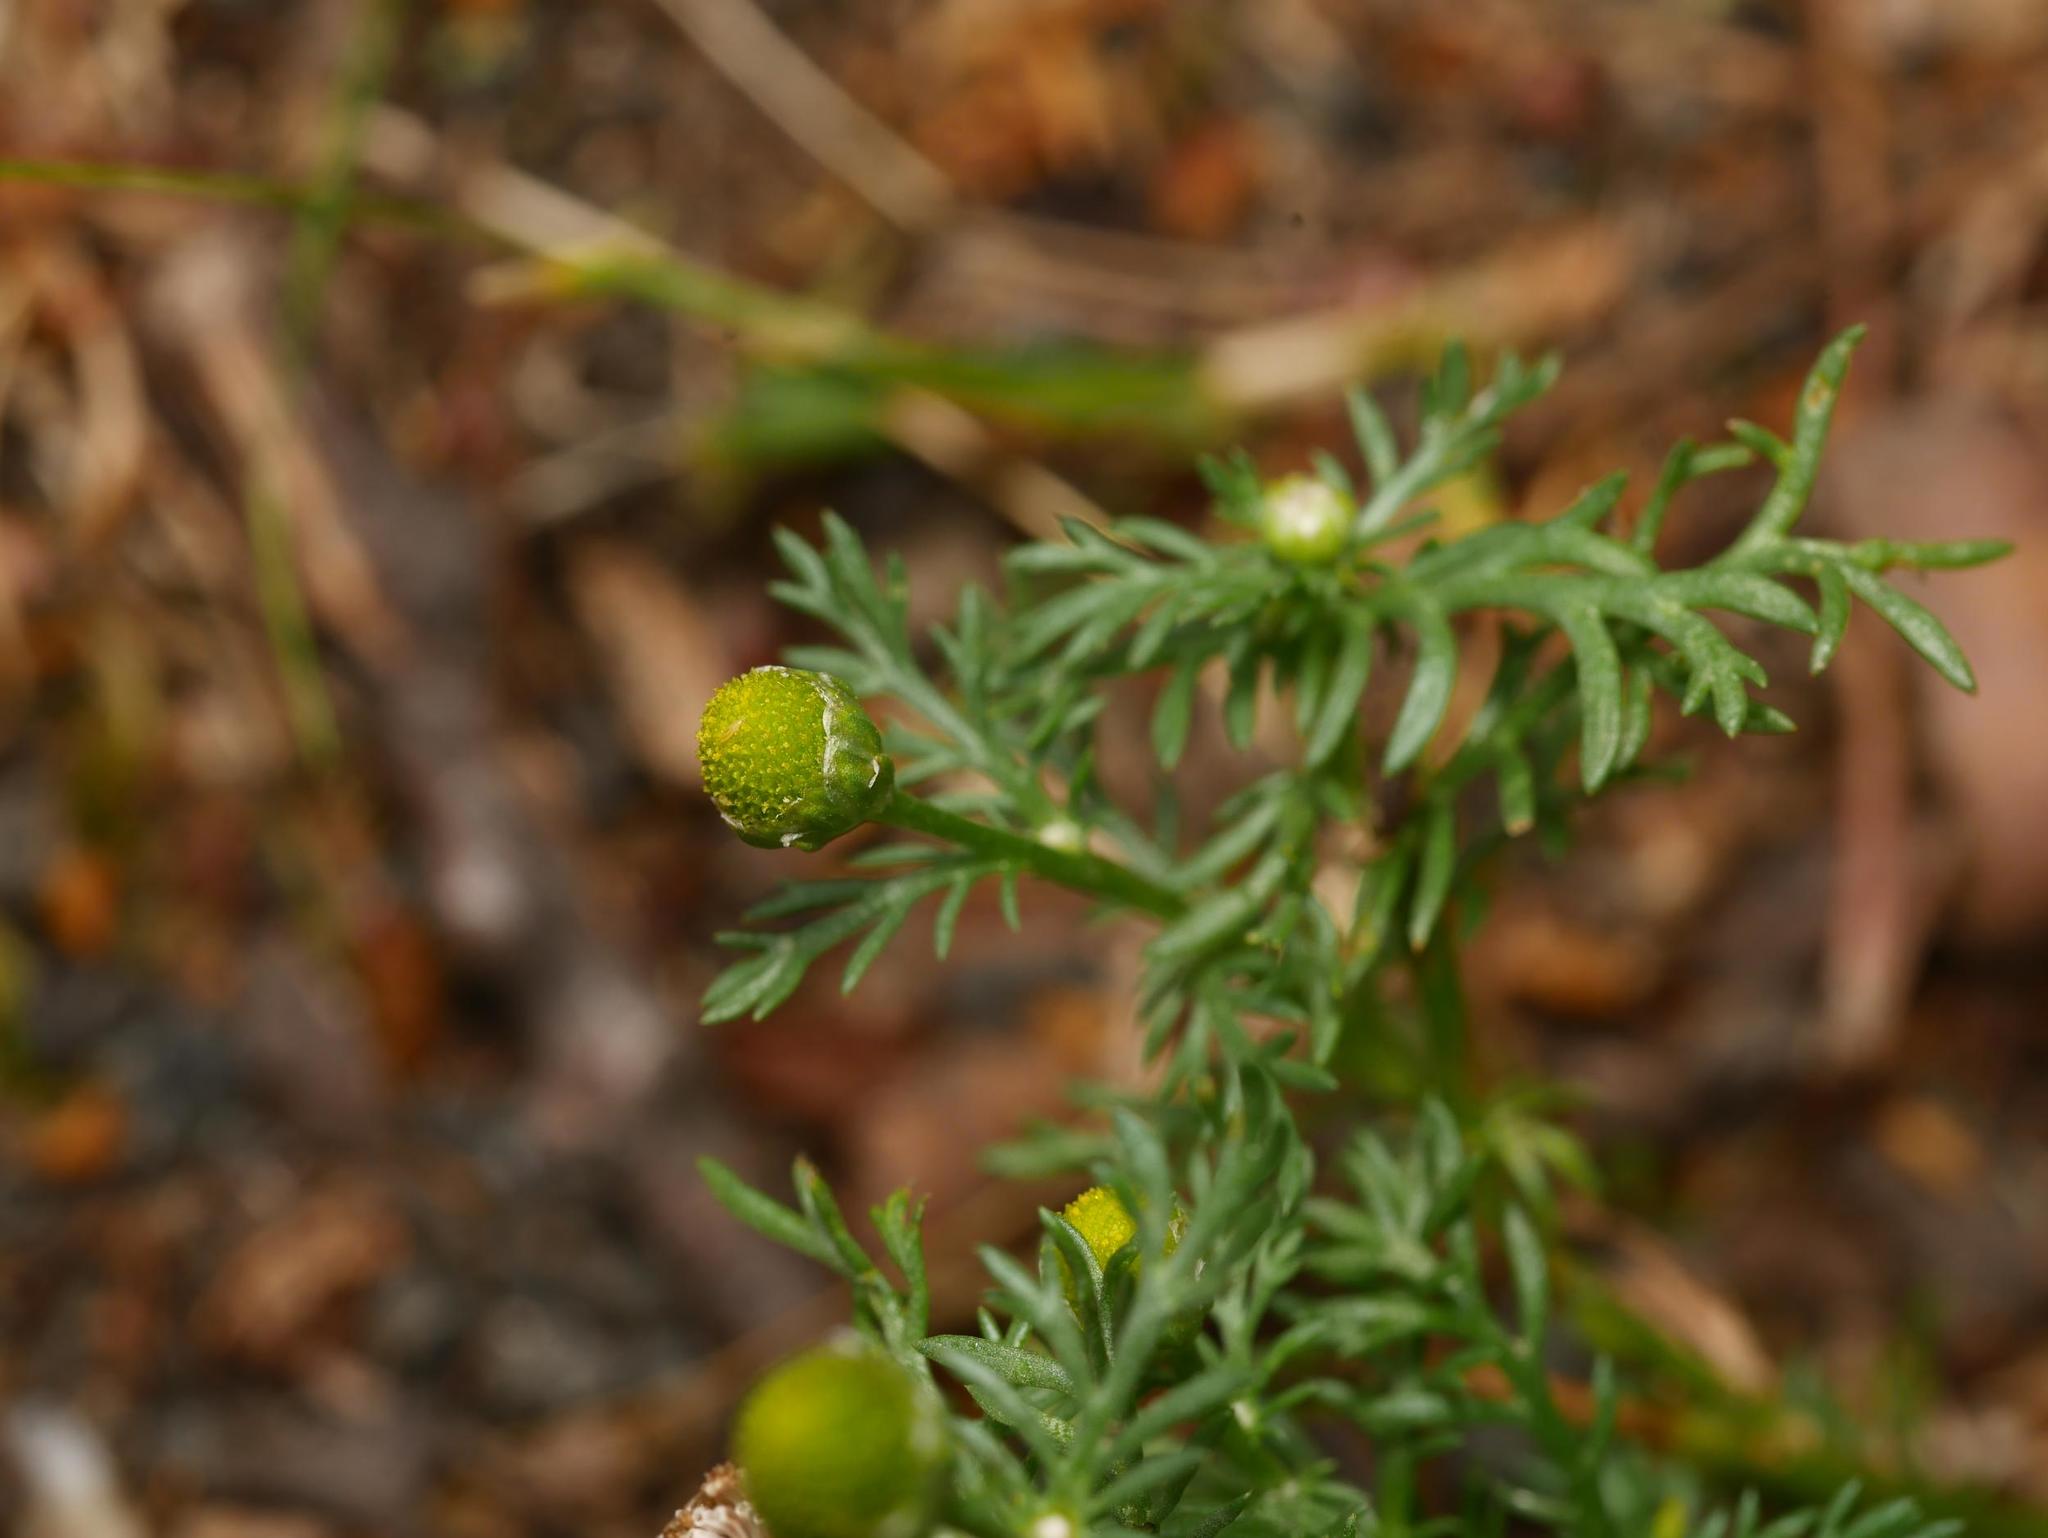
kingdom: Plantae
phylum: Tracheophyta
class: Magnoliopsida
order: Asterales
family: Asteraceae
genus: Matricaria
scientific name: Matricaria discoidea
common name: Disc mayweed
